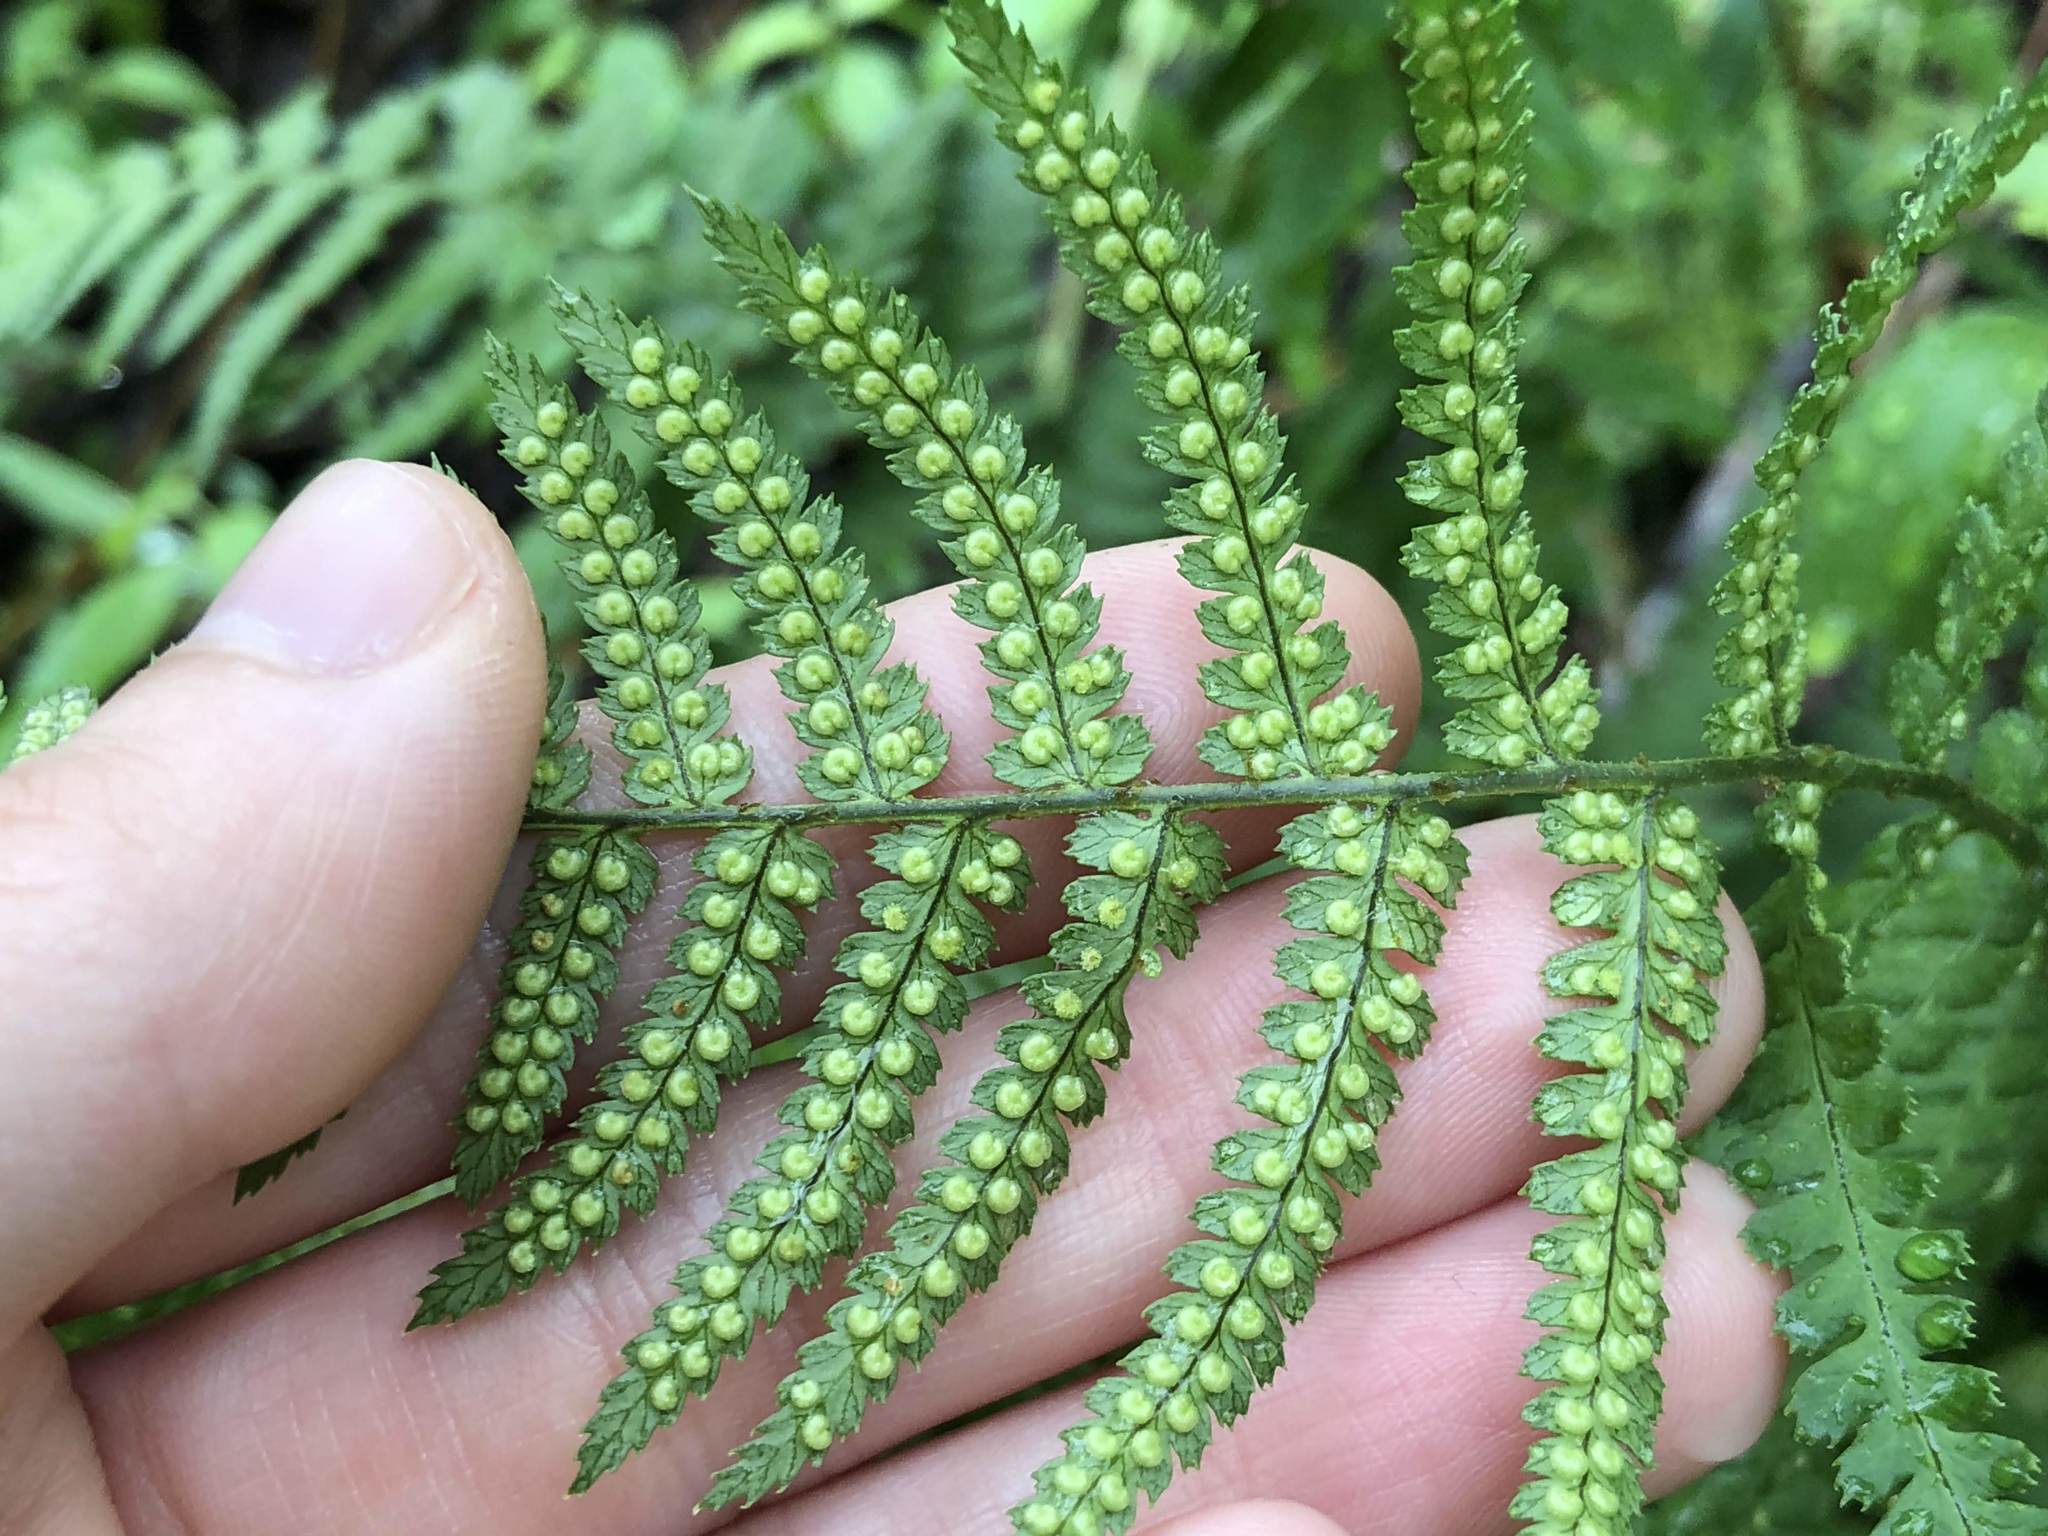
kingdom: Plantae
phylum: Tracheophyta
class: Polypodiopsida
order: Polypodiales
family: Dryopteridaceae
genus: Dryopteris
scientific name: Dryopteris arguta
